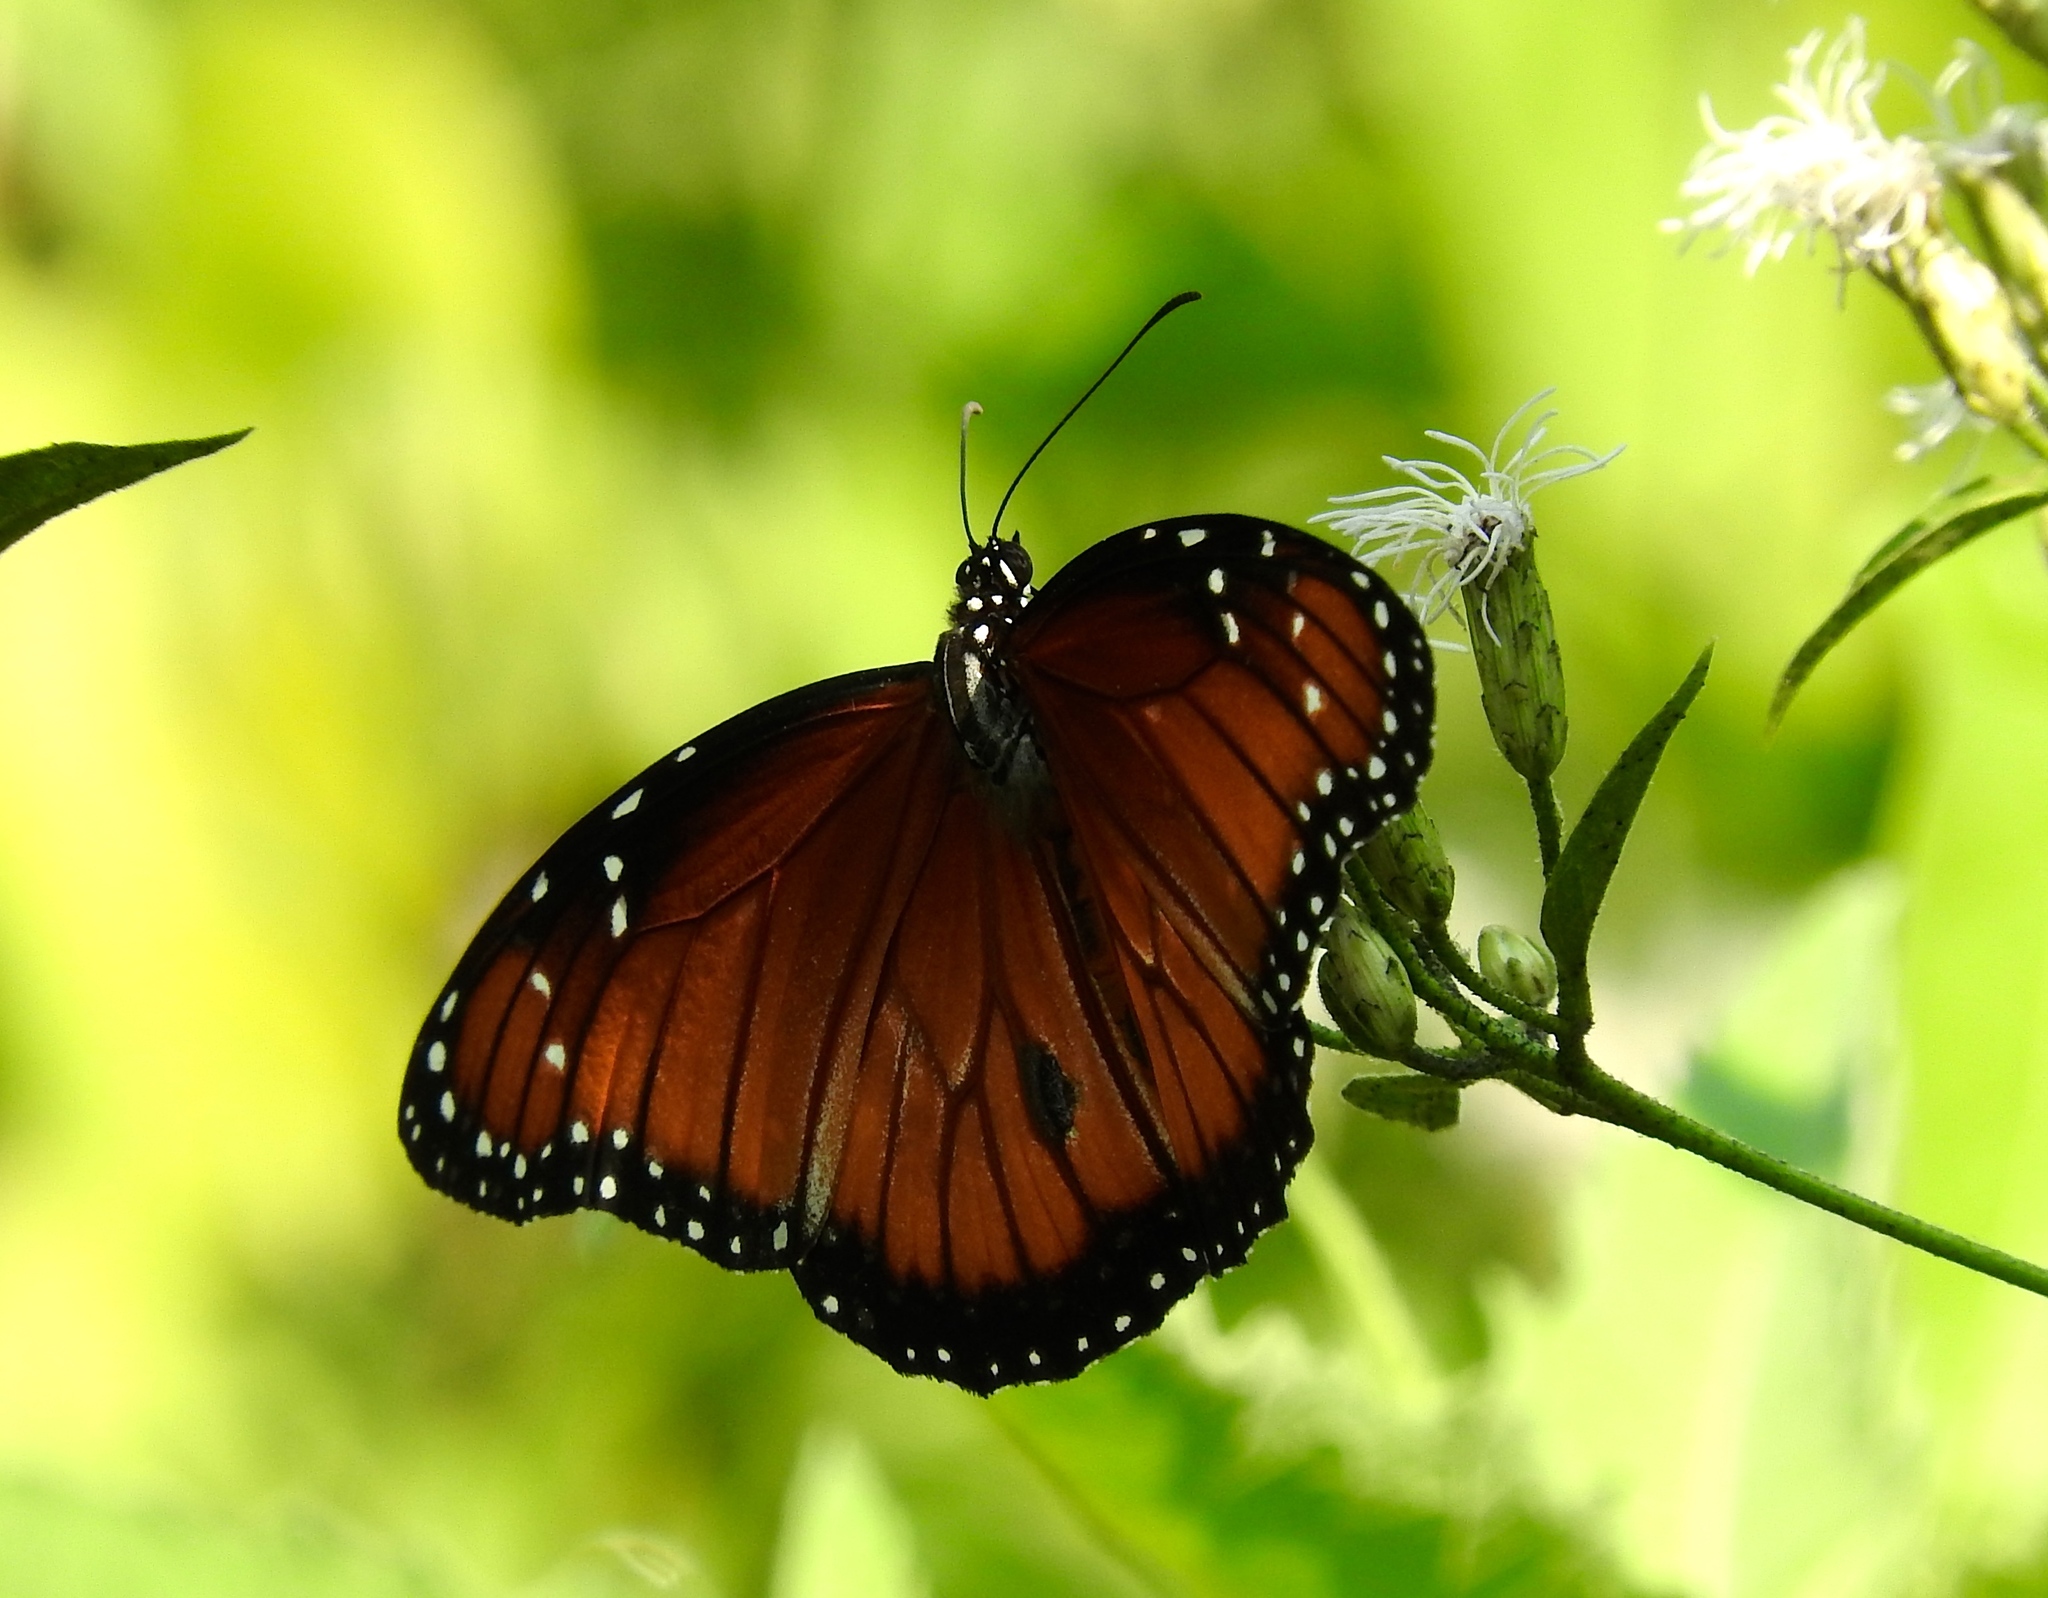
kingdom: Animalia
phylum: Arthropoda
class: Insecta
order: Lepidoptera
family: Nymphalidae
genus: Danaus
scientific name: Danaus eresimus
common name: Soldier
